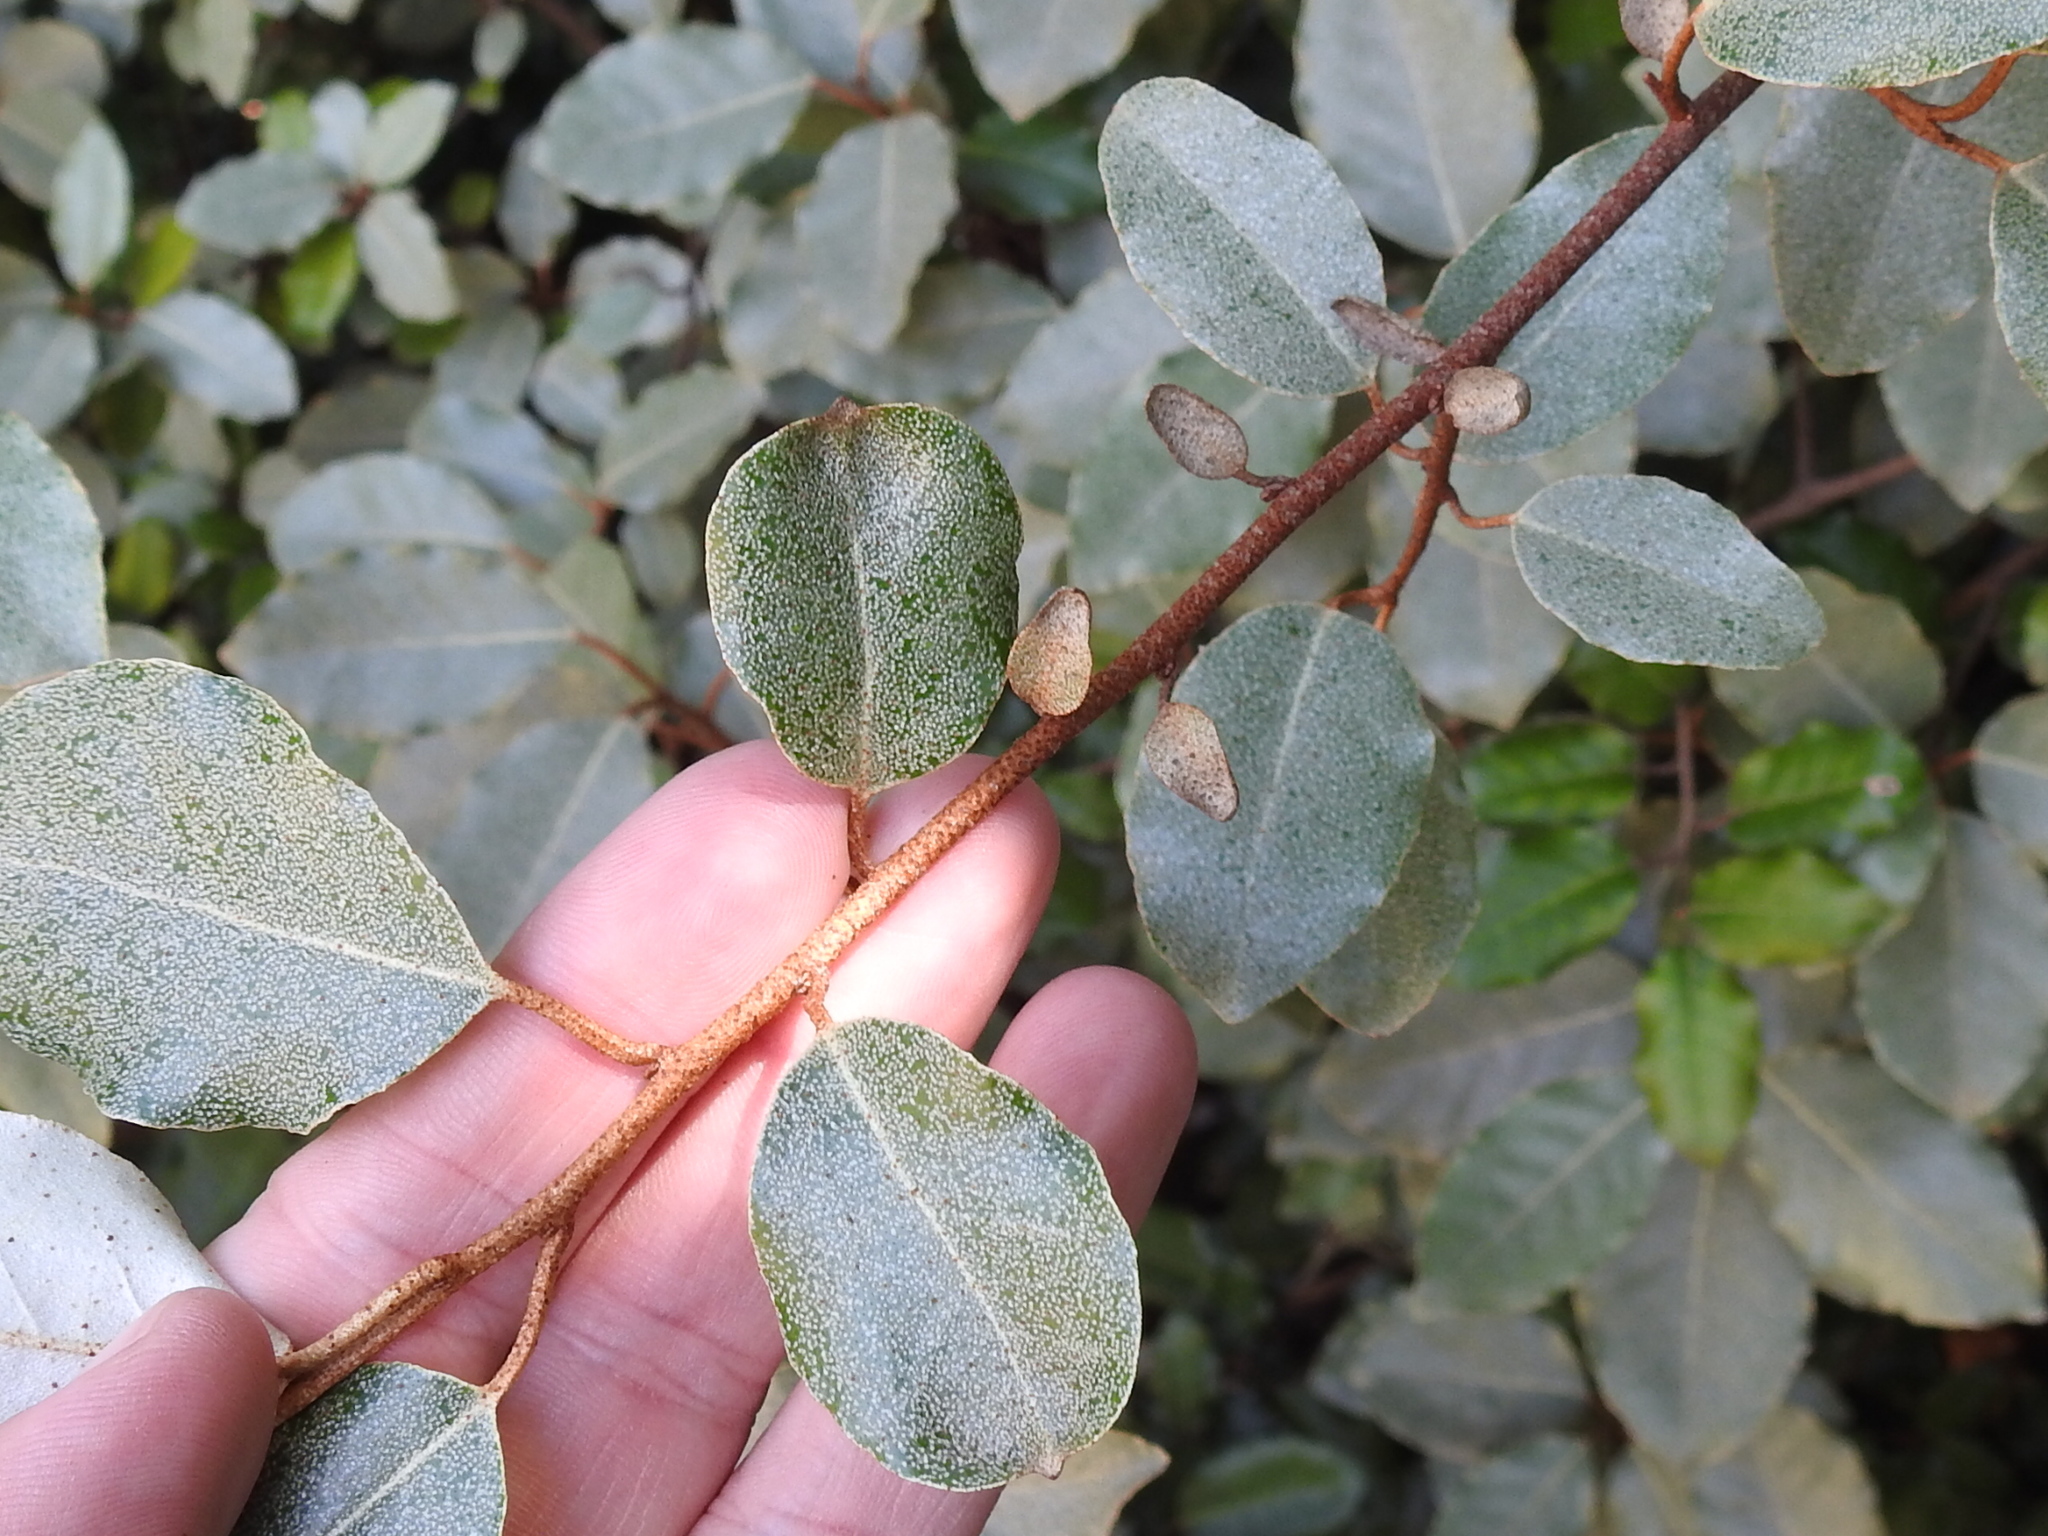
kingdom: Plantae
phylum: Tracheophyta
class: Magnoliopsida
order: Rosales
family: Elaeagnaceae
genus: Elaeagnus
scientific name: Elaeagnus pungens
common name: Spiny oleaster
